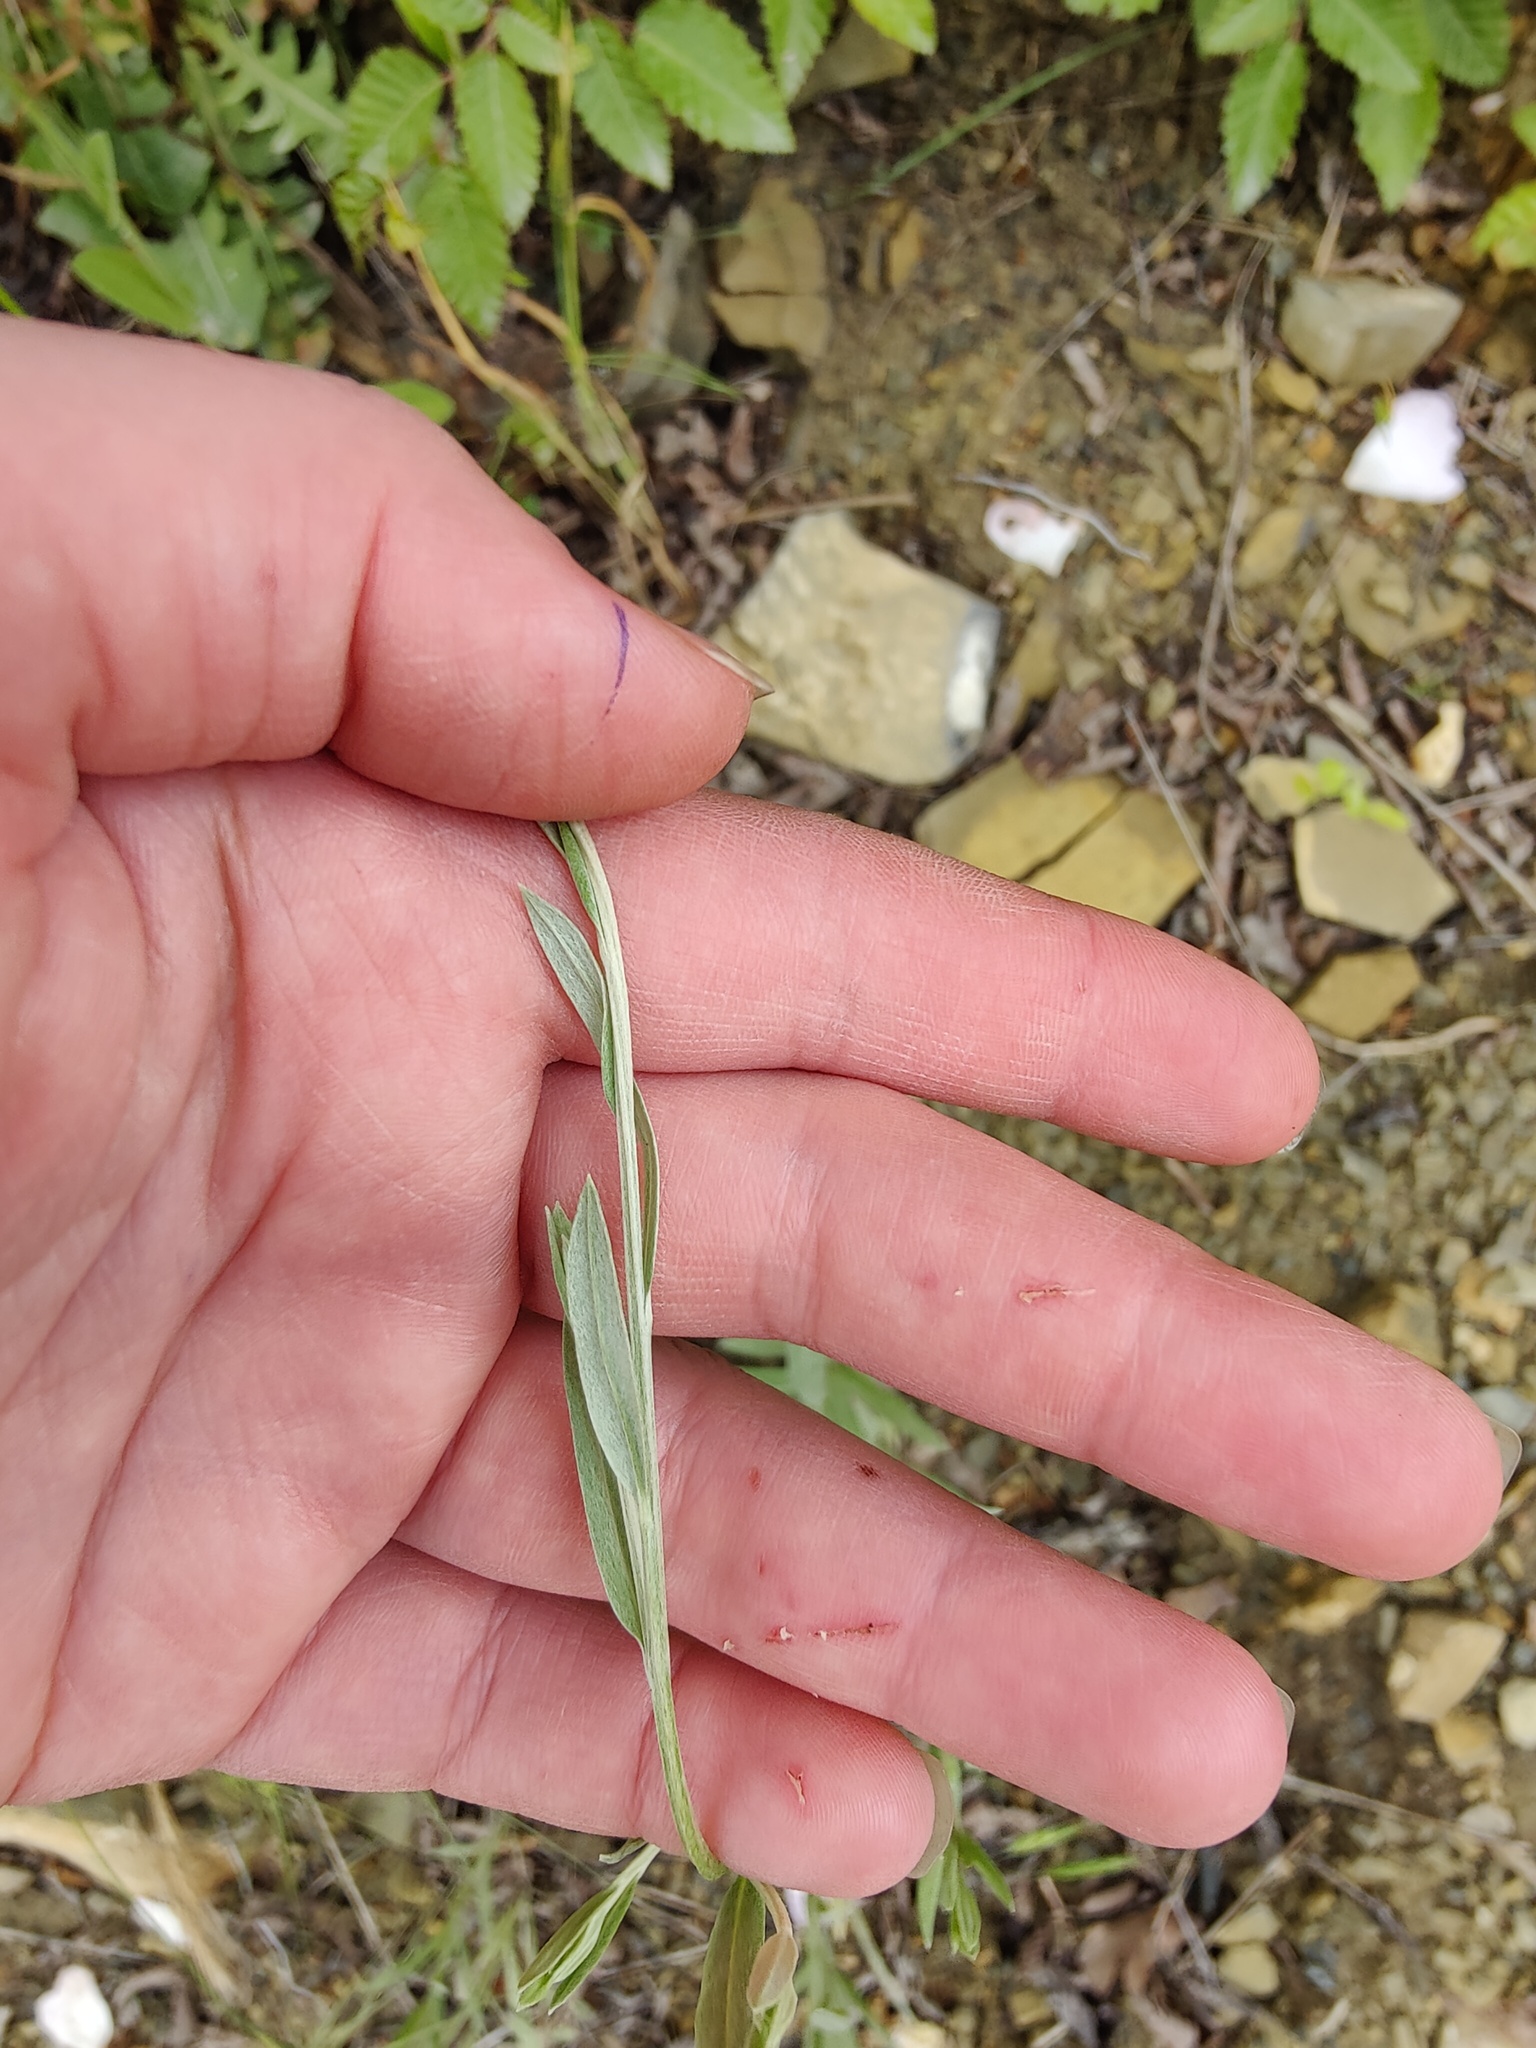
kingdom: Plantae
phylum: Tracheophyta
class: Magnoliopsida
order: Asterales
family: Asteraceae
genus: Xeranthemum
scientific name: Xeranthemum cylindraceum
